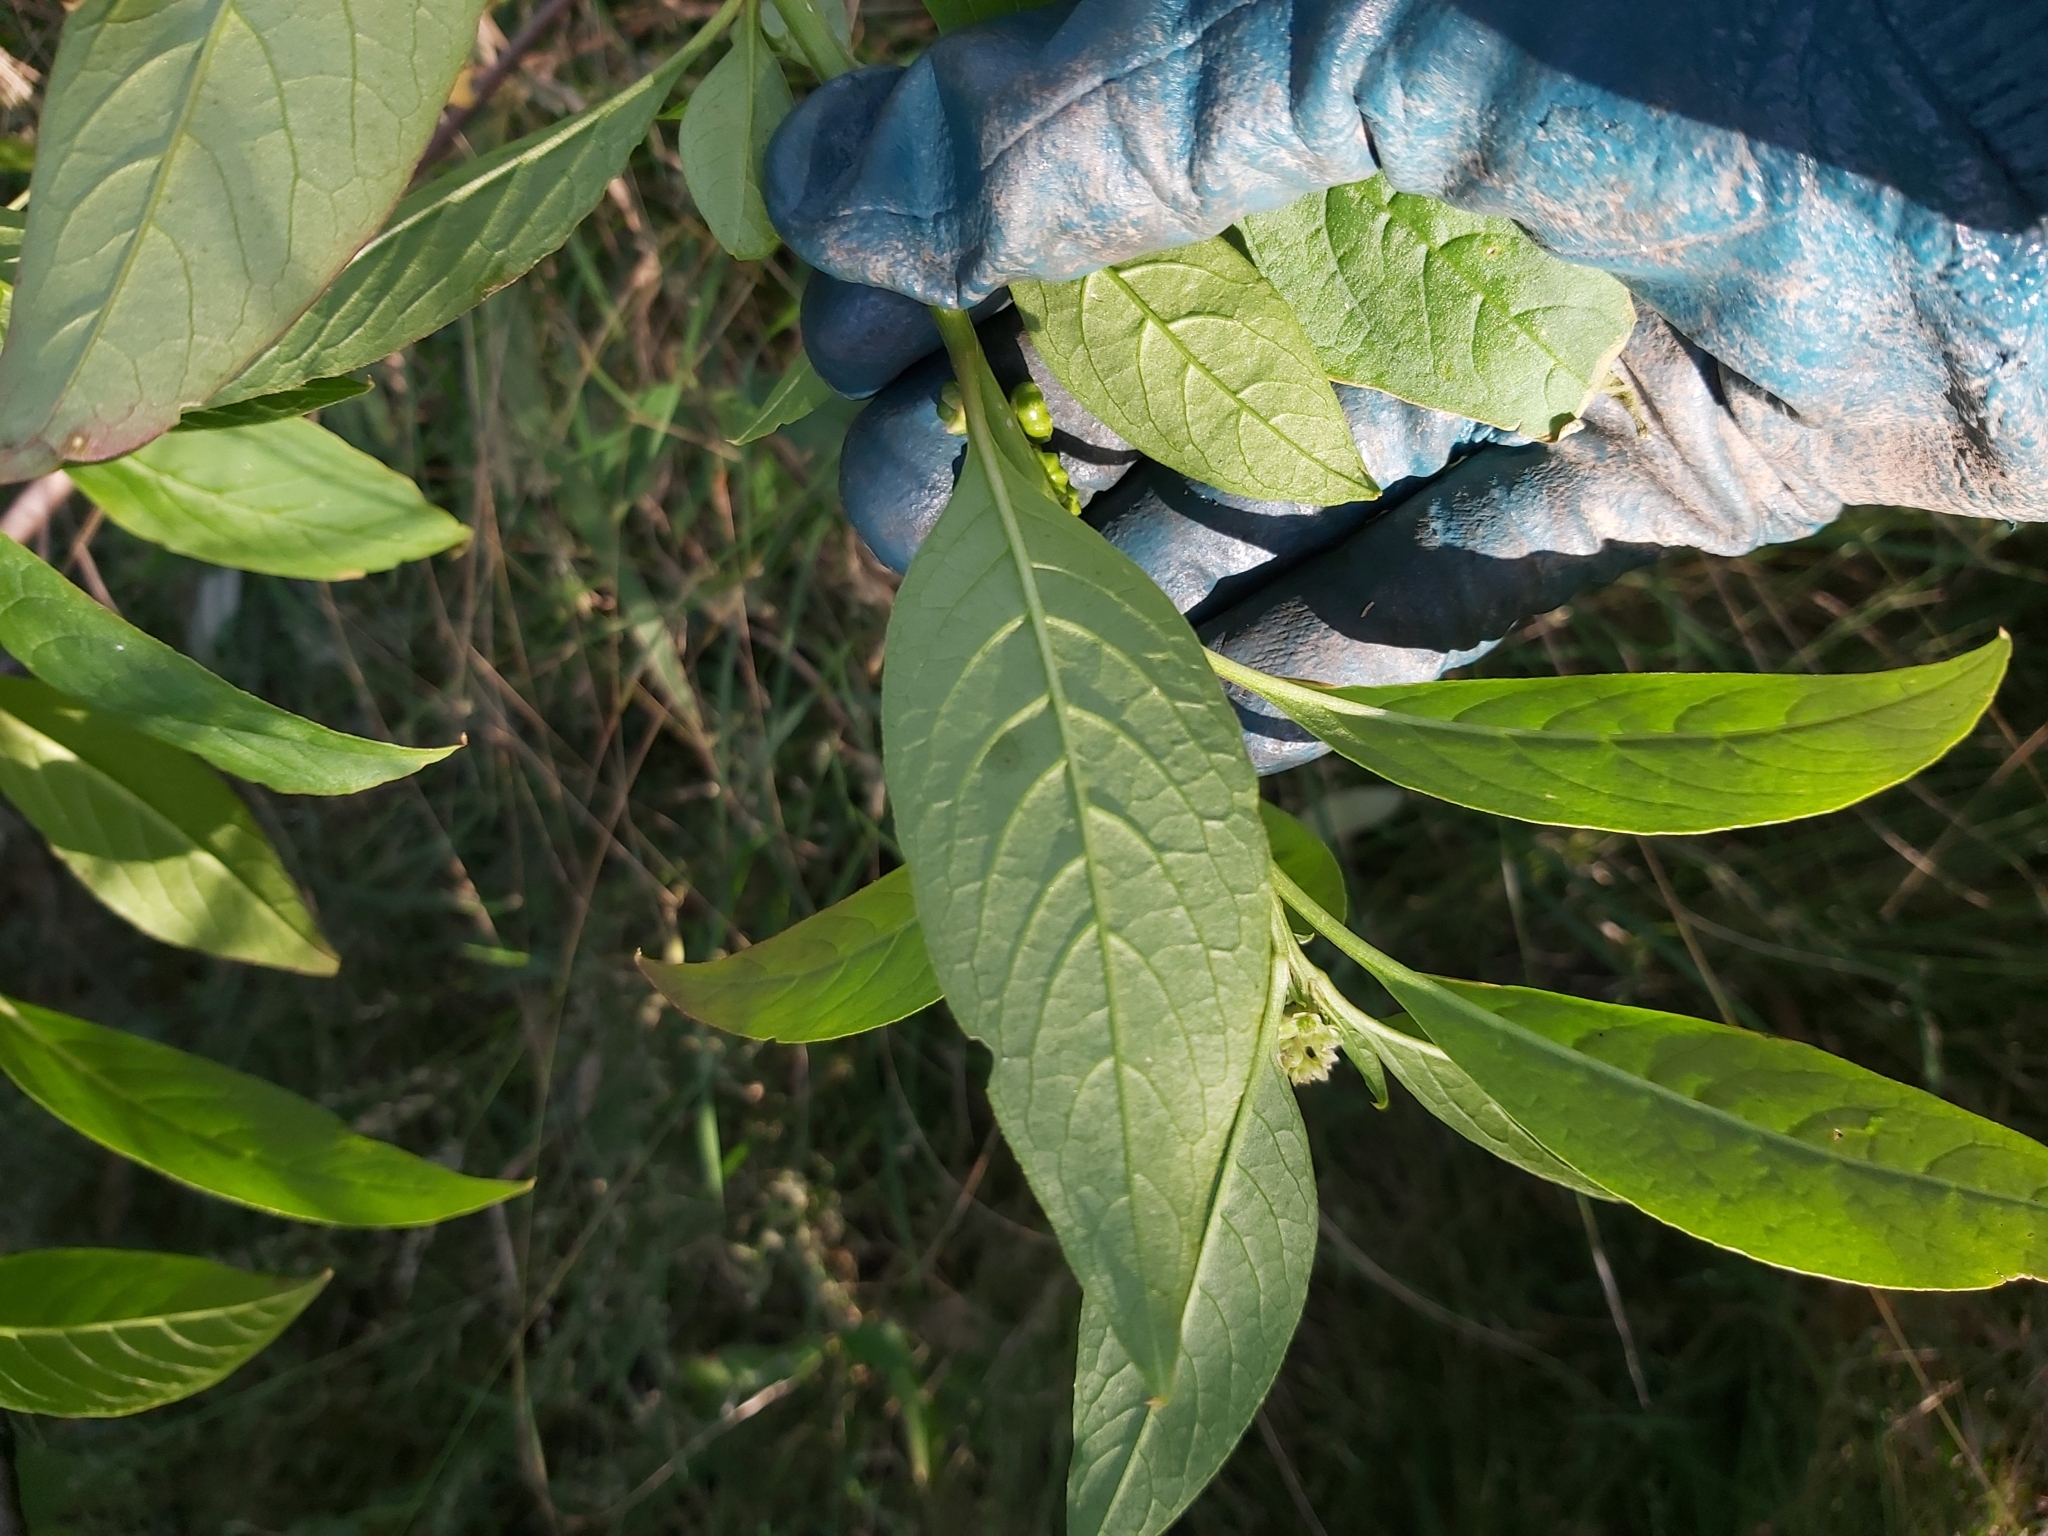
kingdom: Plantae
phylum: Tracheophyta
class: Magnoliopsida
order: Caryophyllales
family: Phytolaccaceae
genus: Phytolacca
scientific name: Phytolacca icosandra
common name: Button pokeweed
